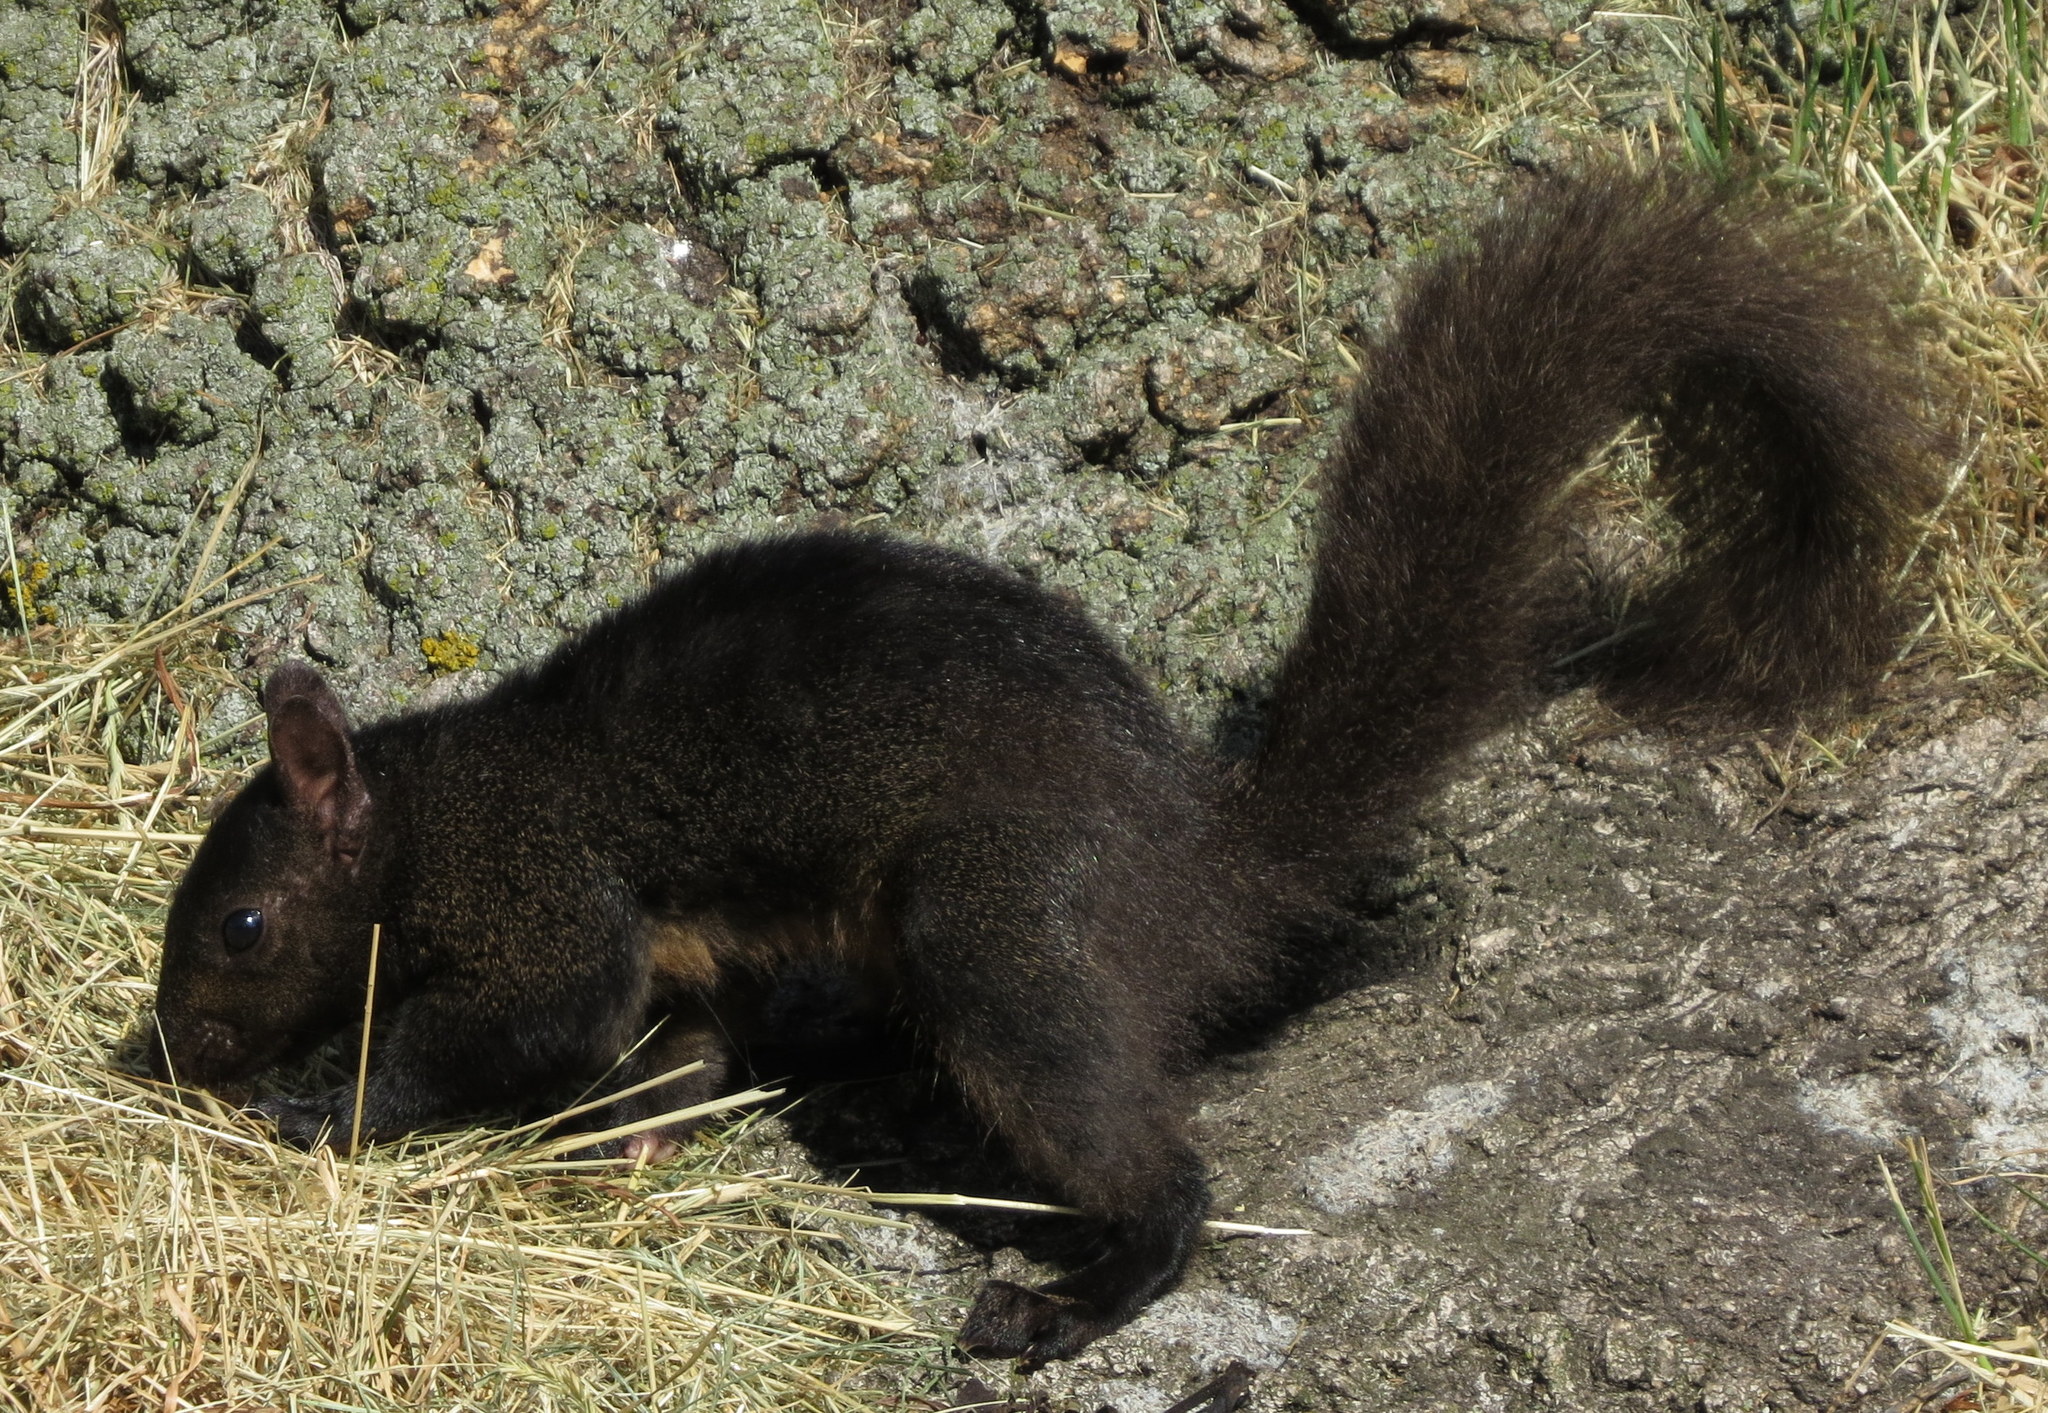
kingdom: Animalia
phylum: Chordata
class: Mammalia
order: Rodentia
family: Sciuridae
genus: Sciurus
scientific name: Sciurus carolinensis
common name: Eastern gray squirrel
